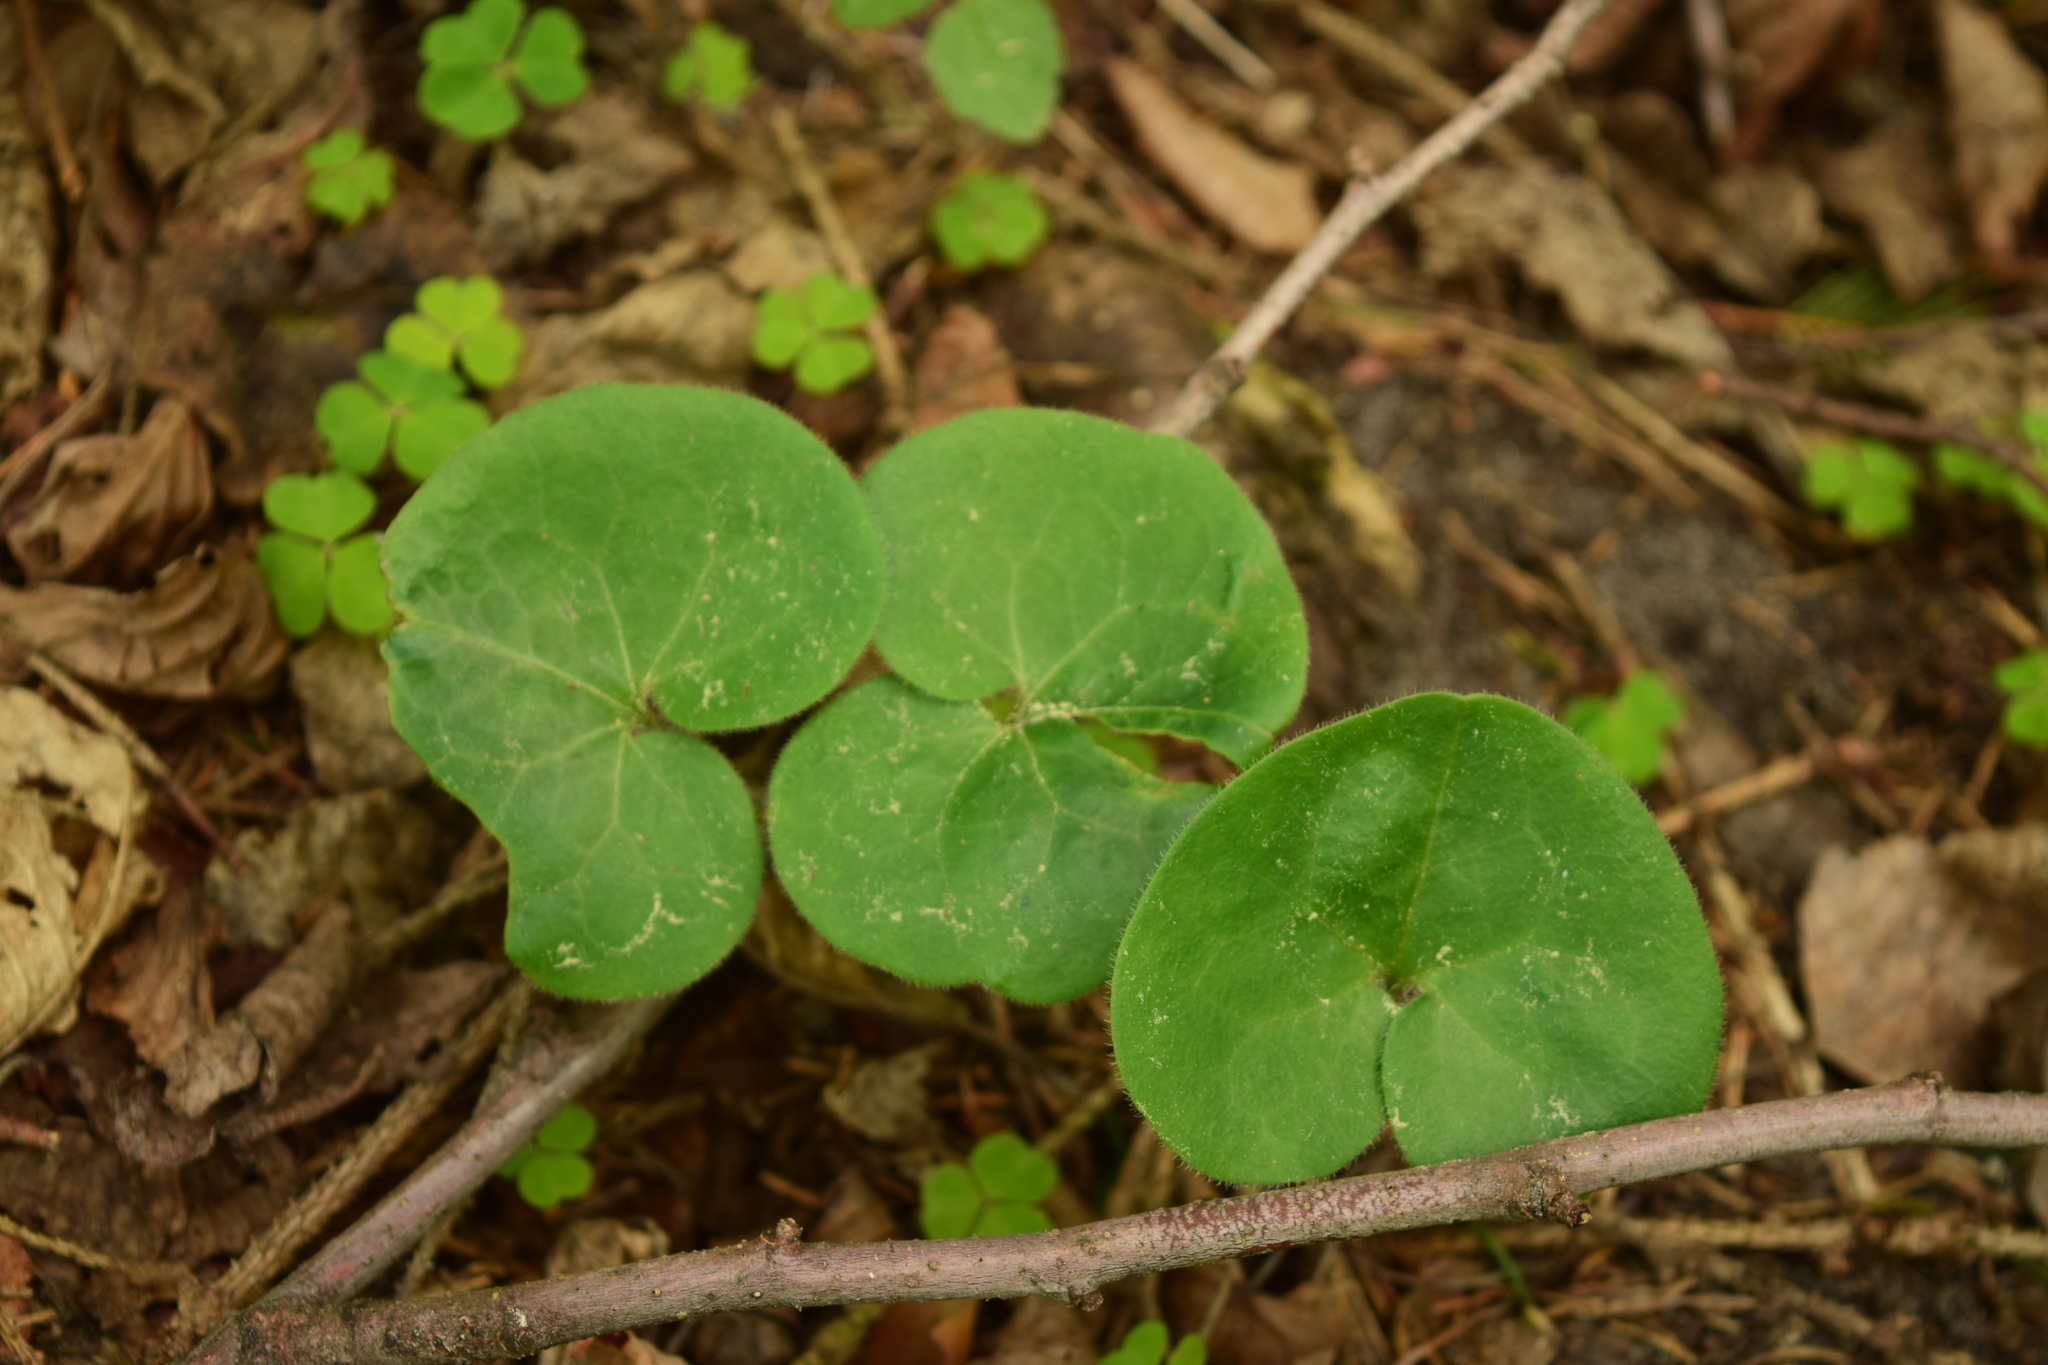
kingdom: Plantae
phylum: Tracheophyta
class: Magnoliopsida
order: Piperales
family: Aristolochiaceae
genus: Asarum
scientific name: Asarum europaeum
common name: Asarabacca
